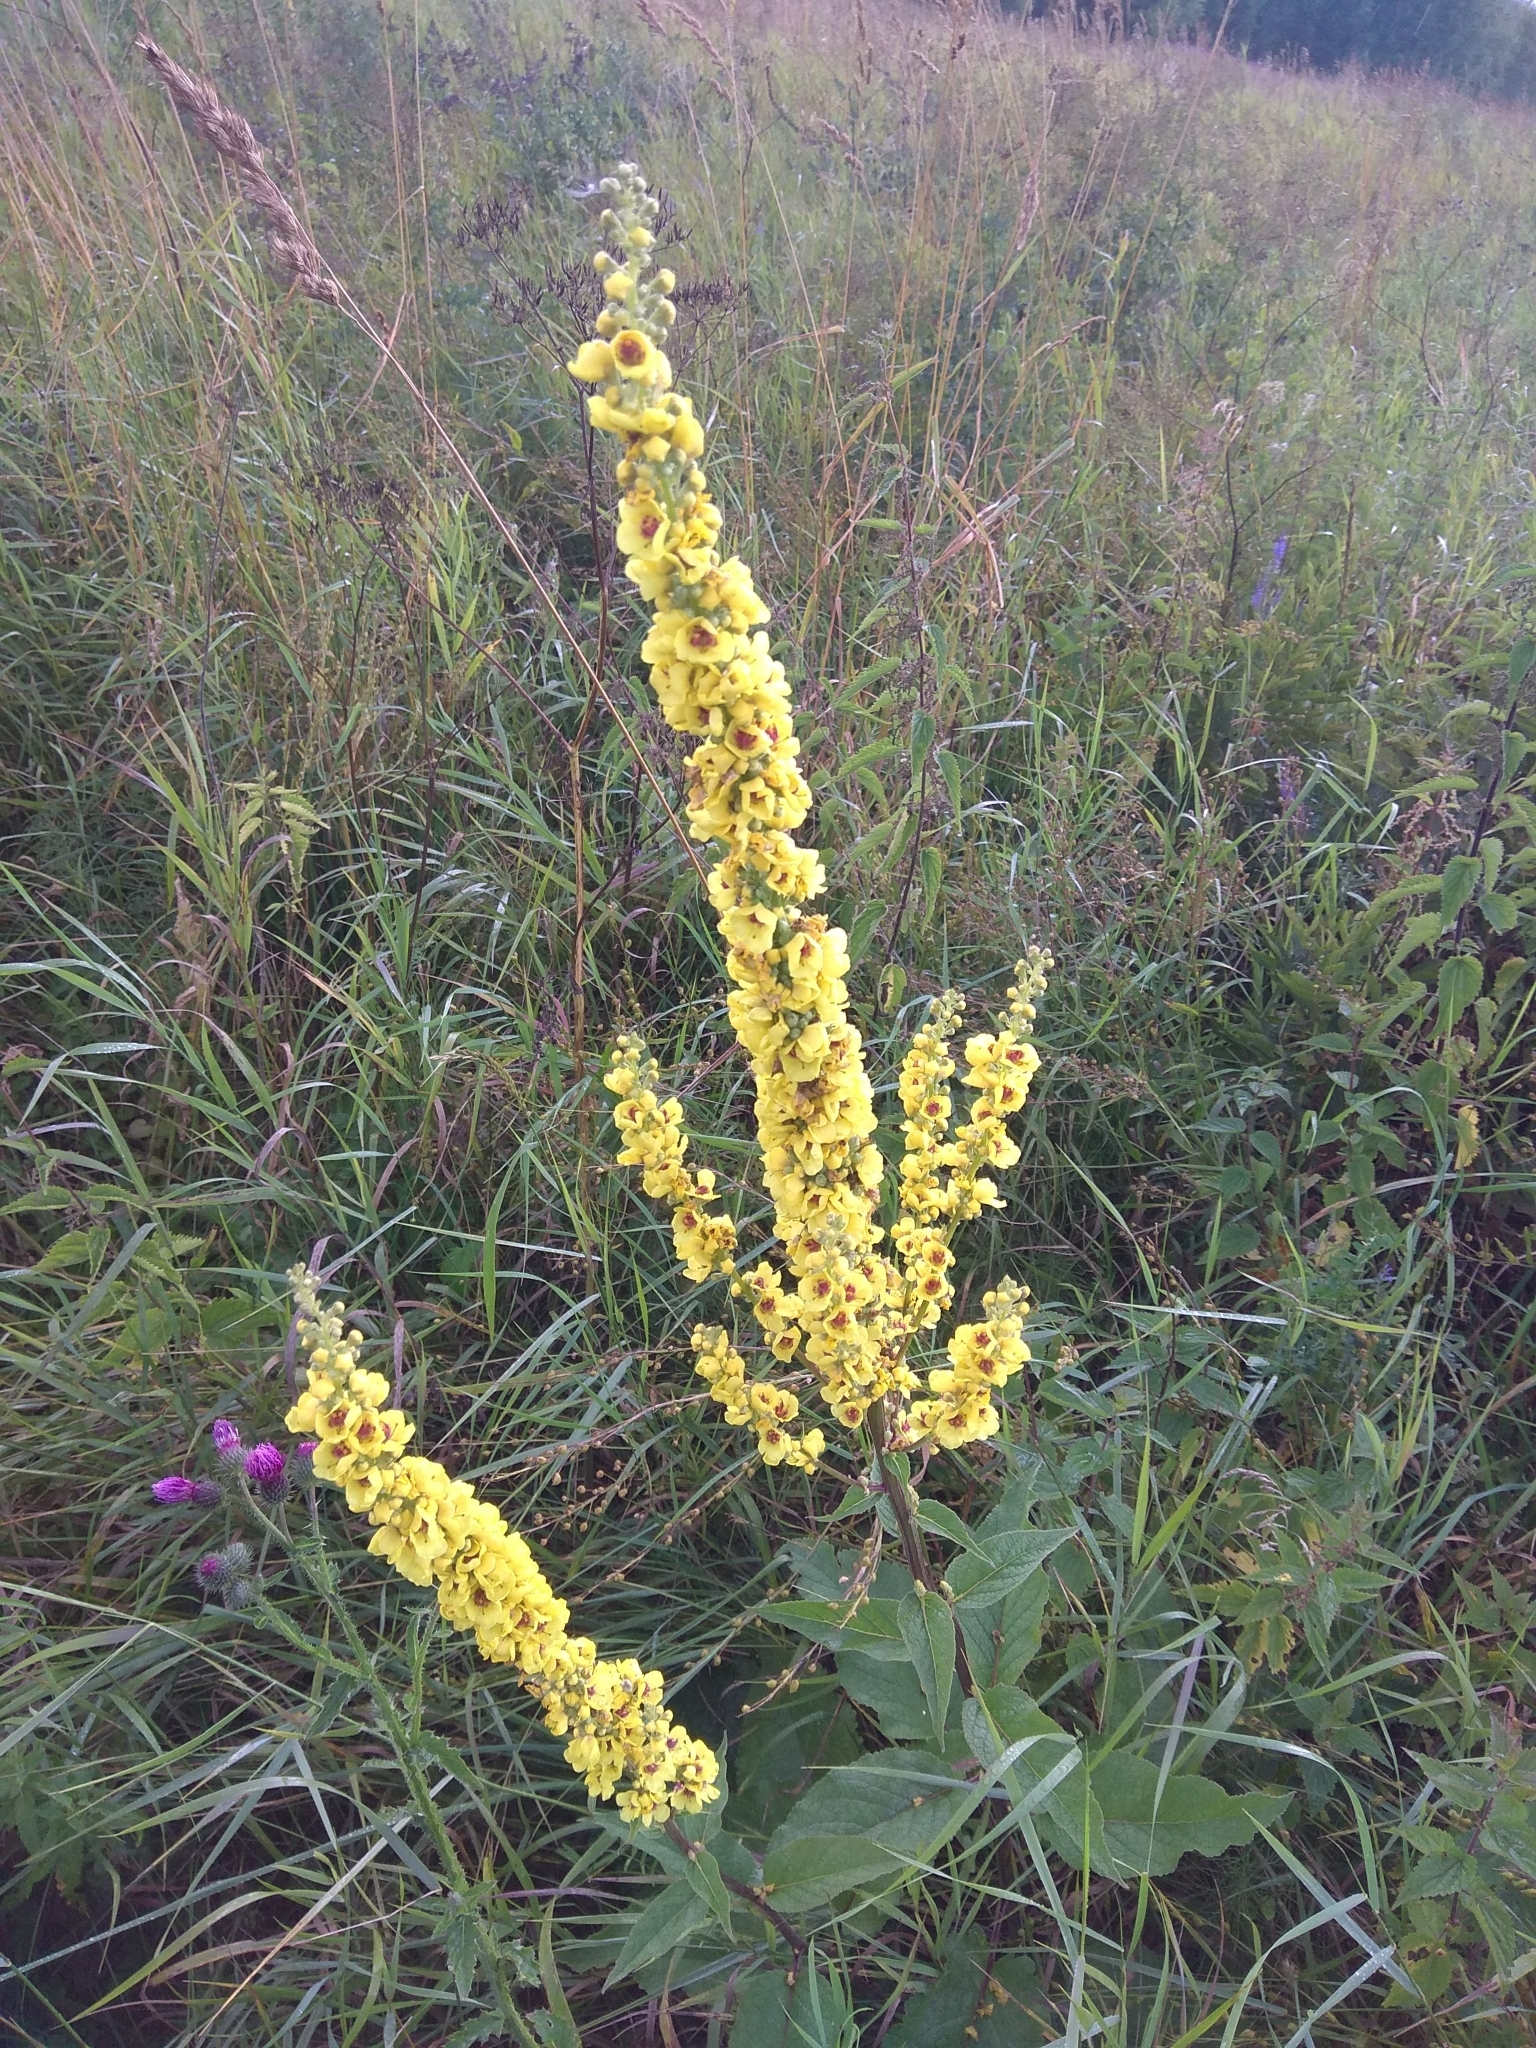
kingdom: Plantae
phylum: Tracheophyta
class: Magnoliopsida
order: Lamiales
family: Scrophulariaceae
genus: Verbascum
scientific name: Verbascum nigrum
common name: Dark mullein
